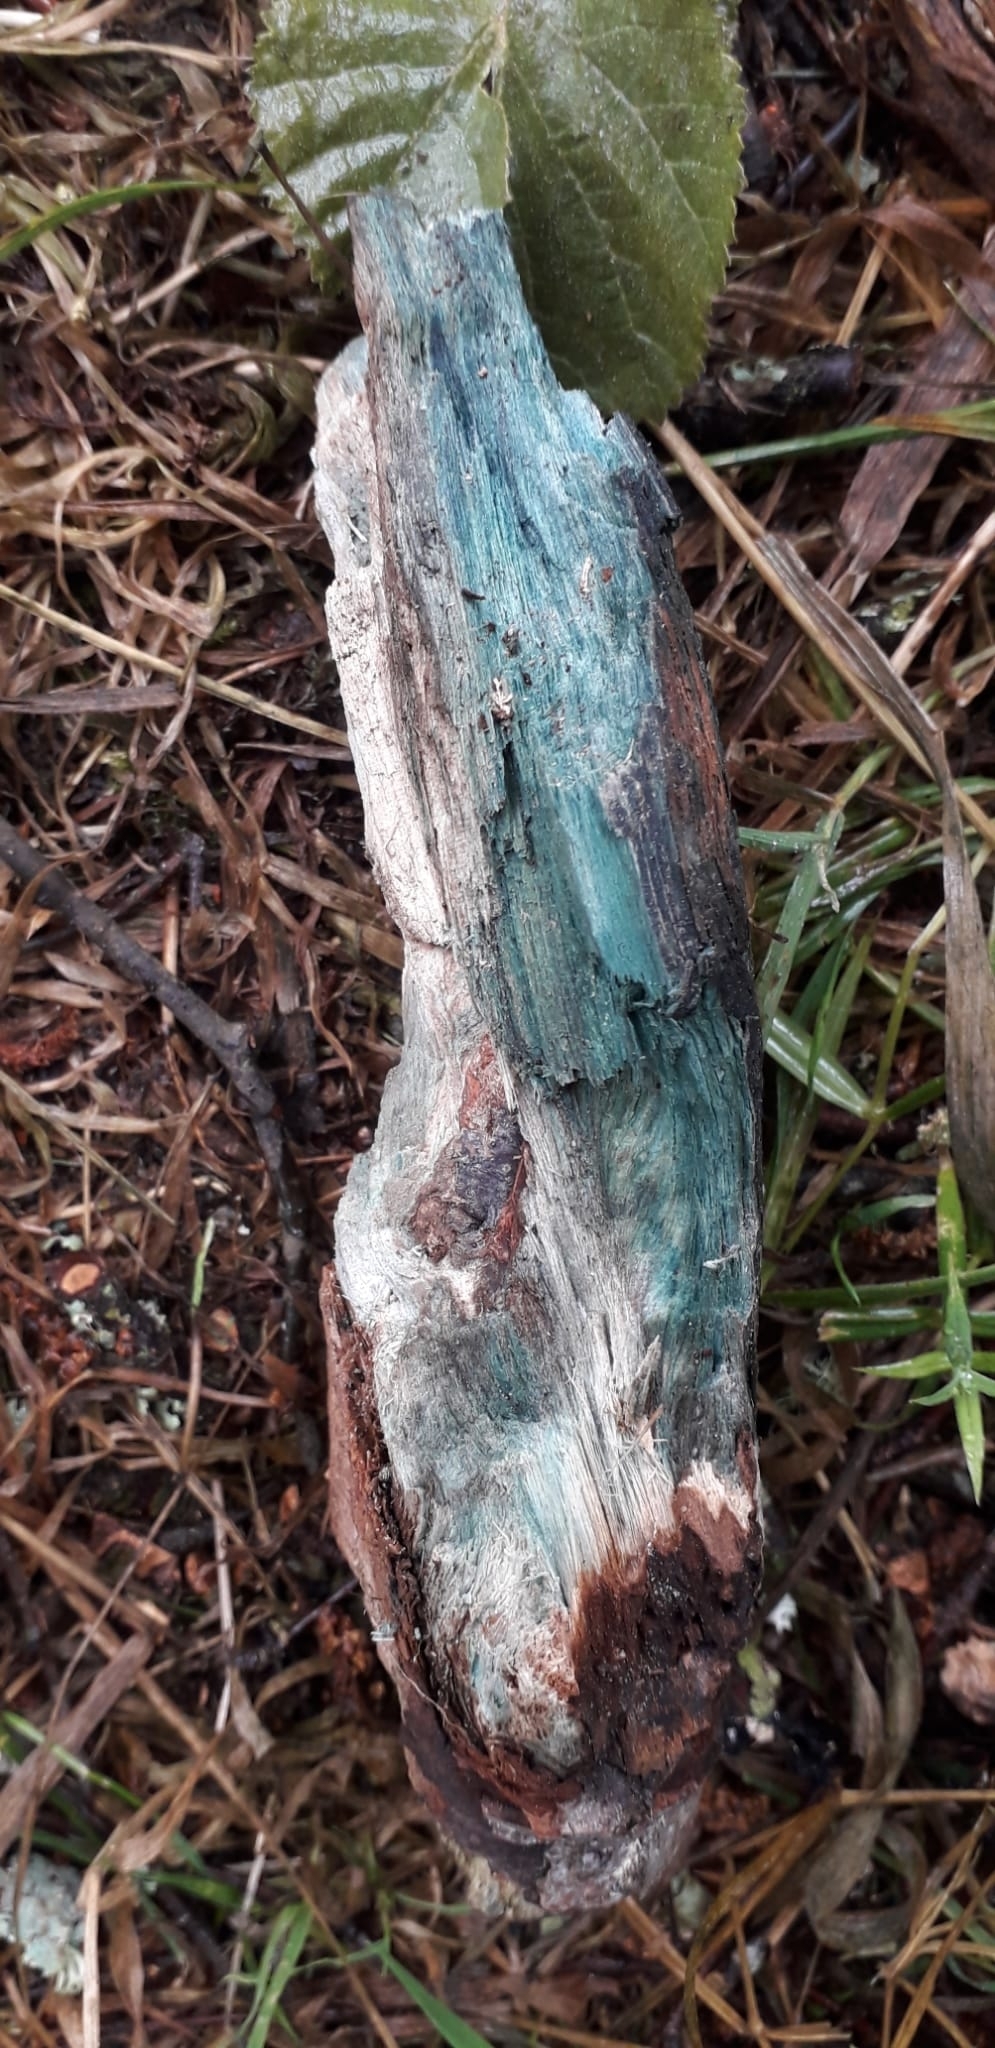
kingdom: Fungi
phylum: Ascomycota
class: Leotiomycetes
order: Helotiales
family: Chlorociboriaceae
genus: Chlorociboria
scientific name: Chlorociboria aeruginascens
